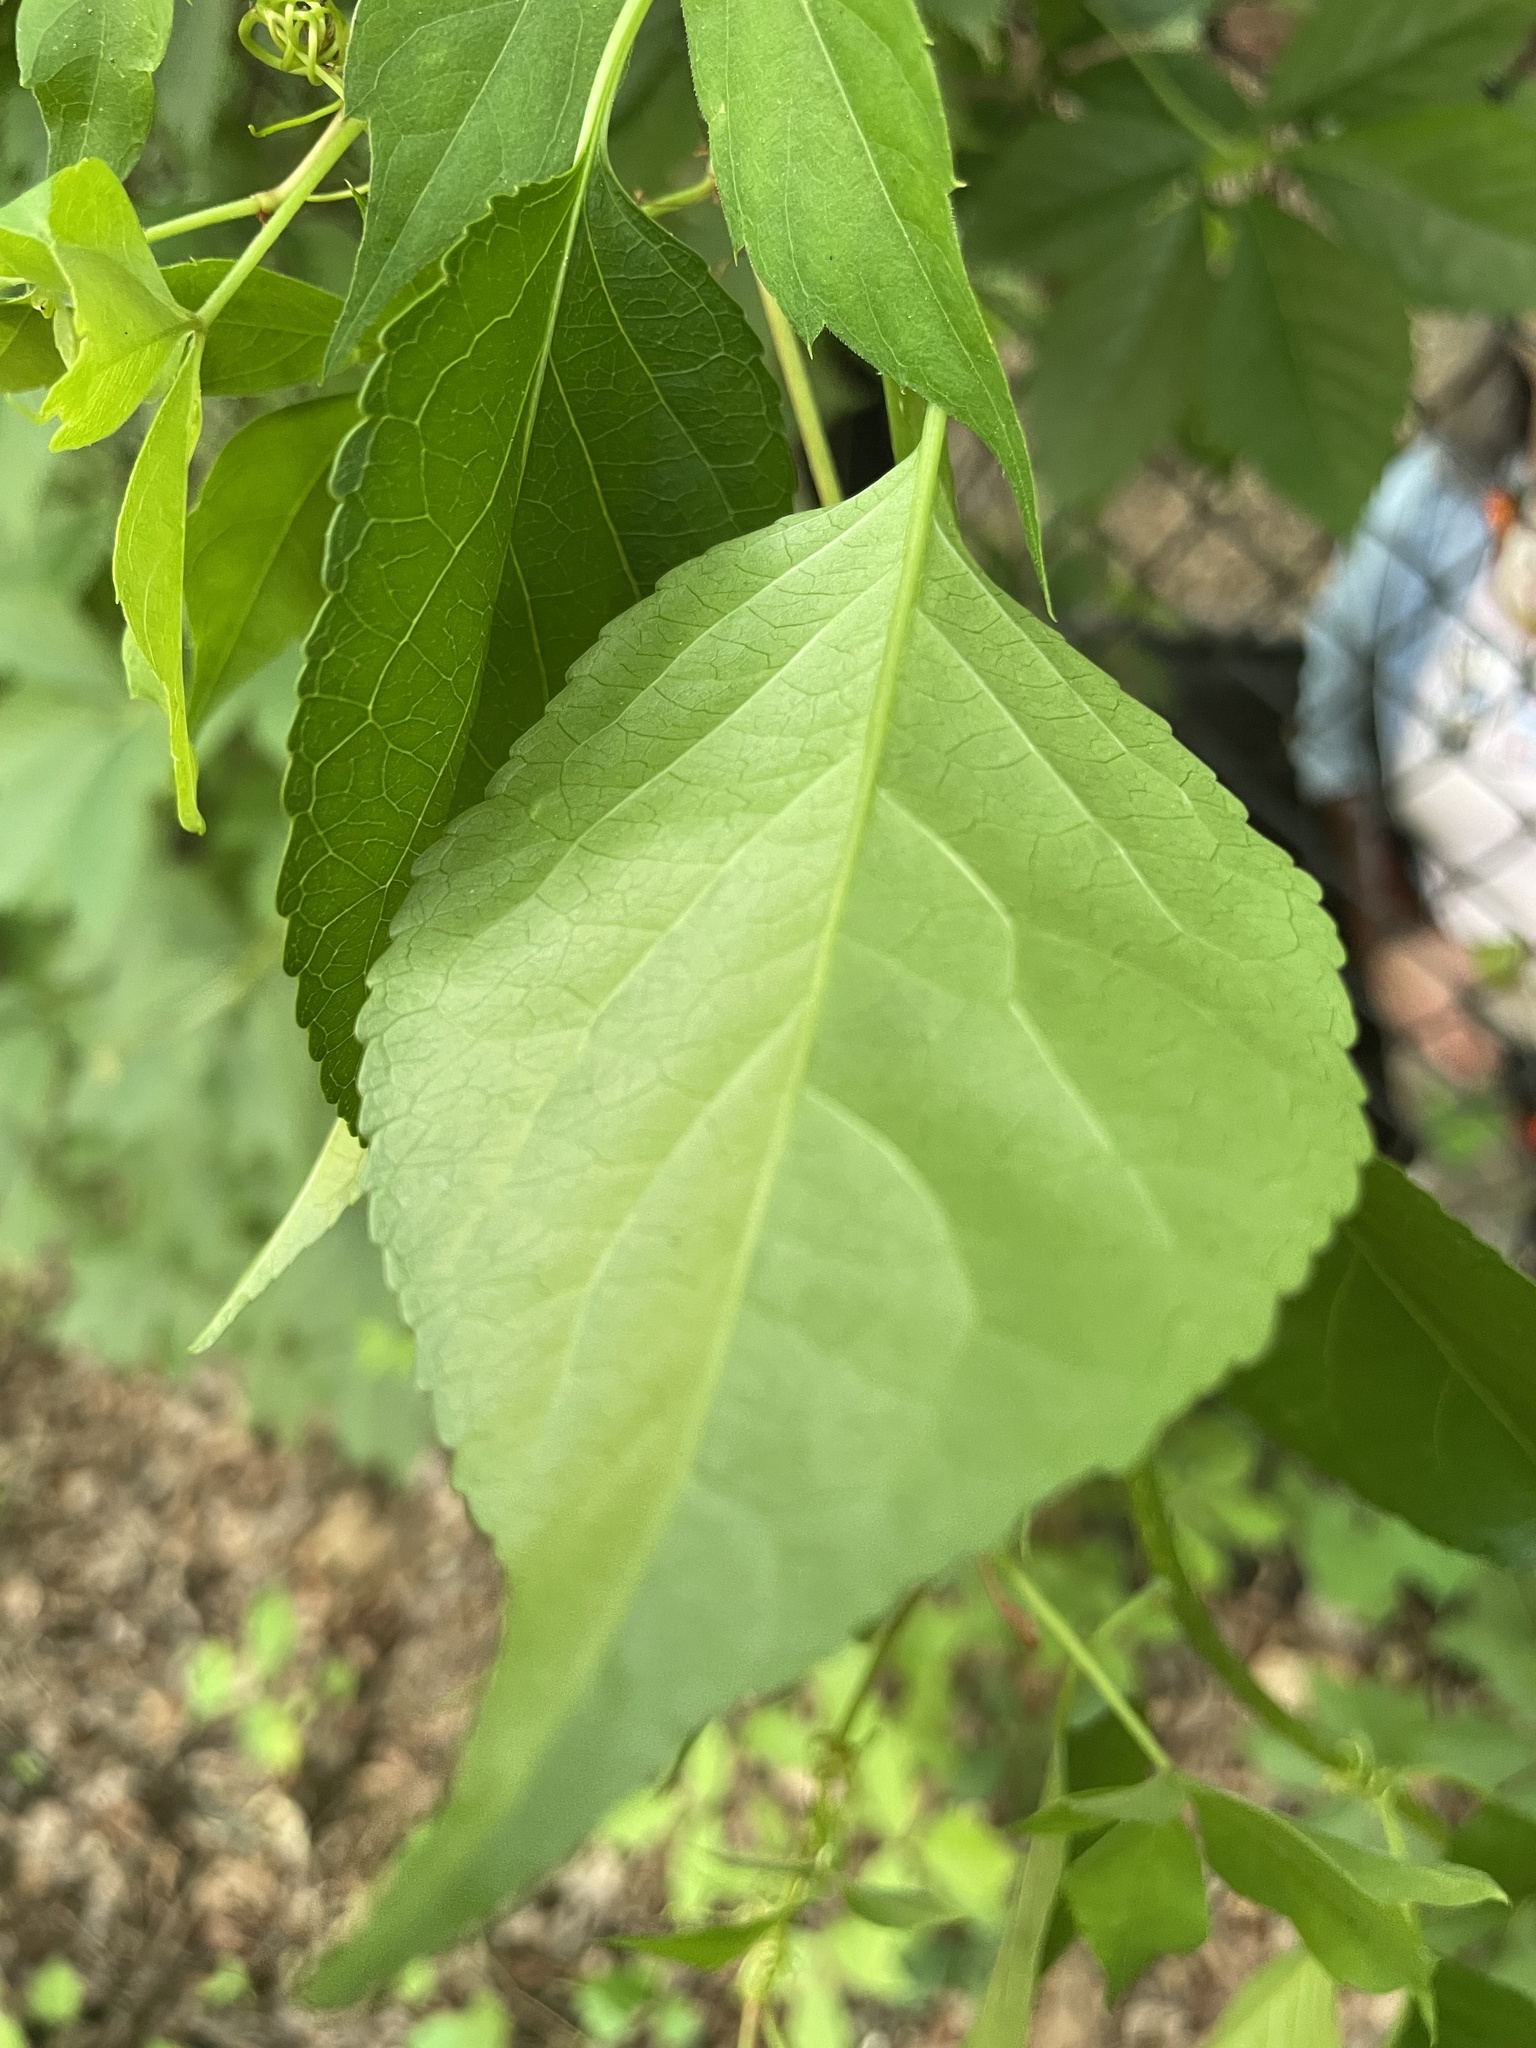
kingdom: Plantae
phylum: Tracheophyta
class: Magnoliopsida
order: Celastrales
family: Celastraceae
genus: Celastrus
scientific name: Celastrus orbiculatus
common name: Oriental bittersweet
